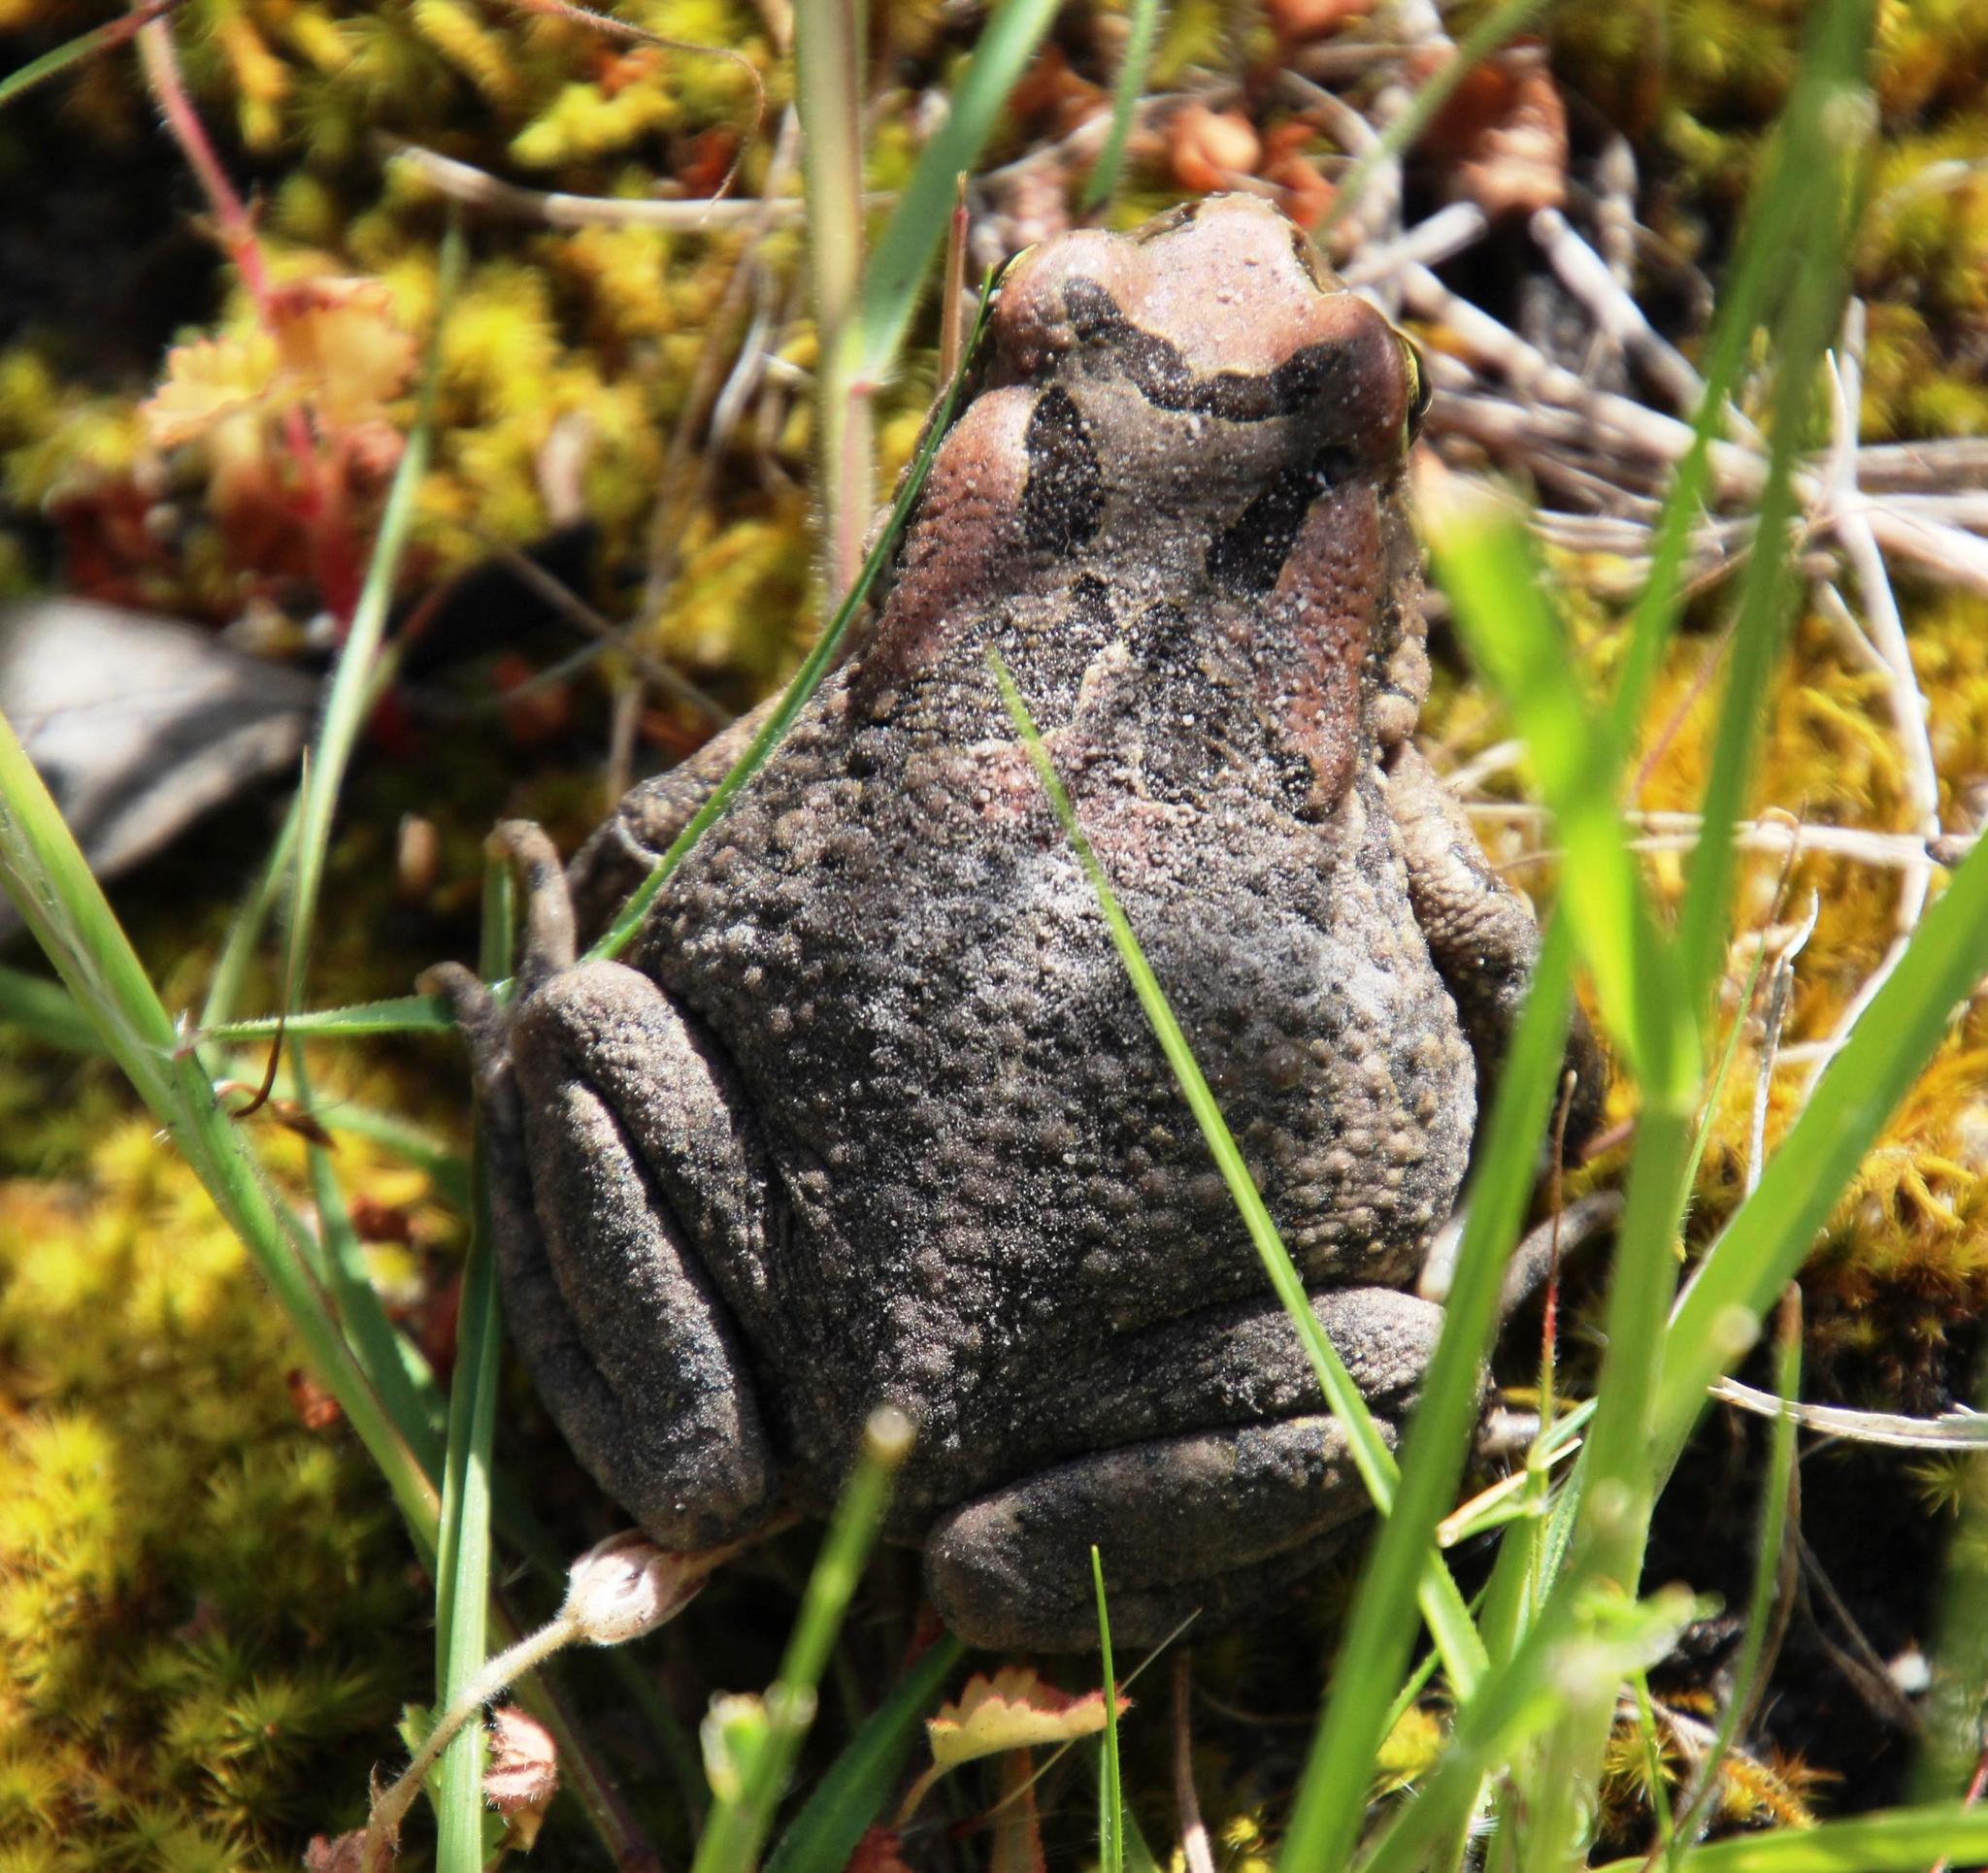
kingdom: Animalia
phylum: Chordata
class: Amphibia
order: Anura
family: Bufonidae
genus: Sclerophrys
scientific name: Sclerophrys capensis
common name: Ranger’s toad
